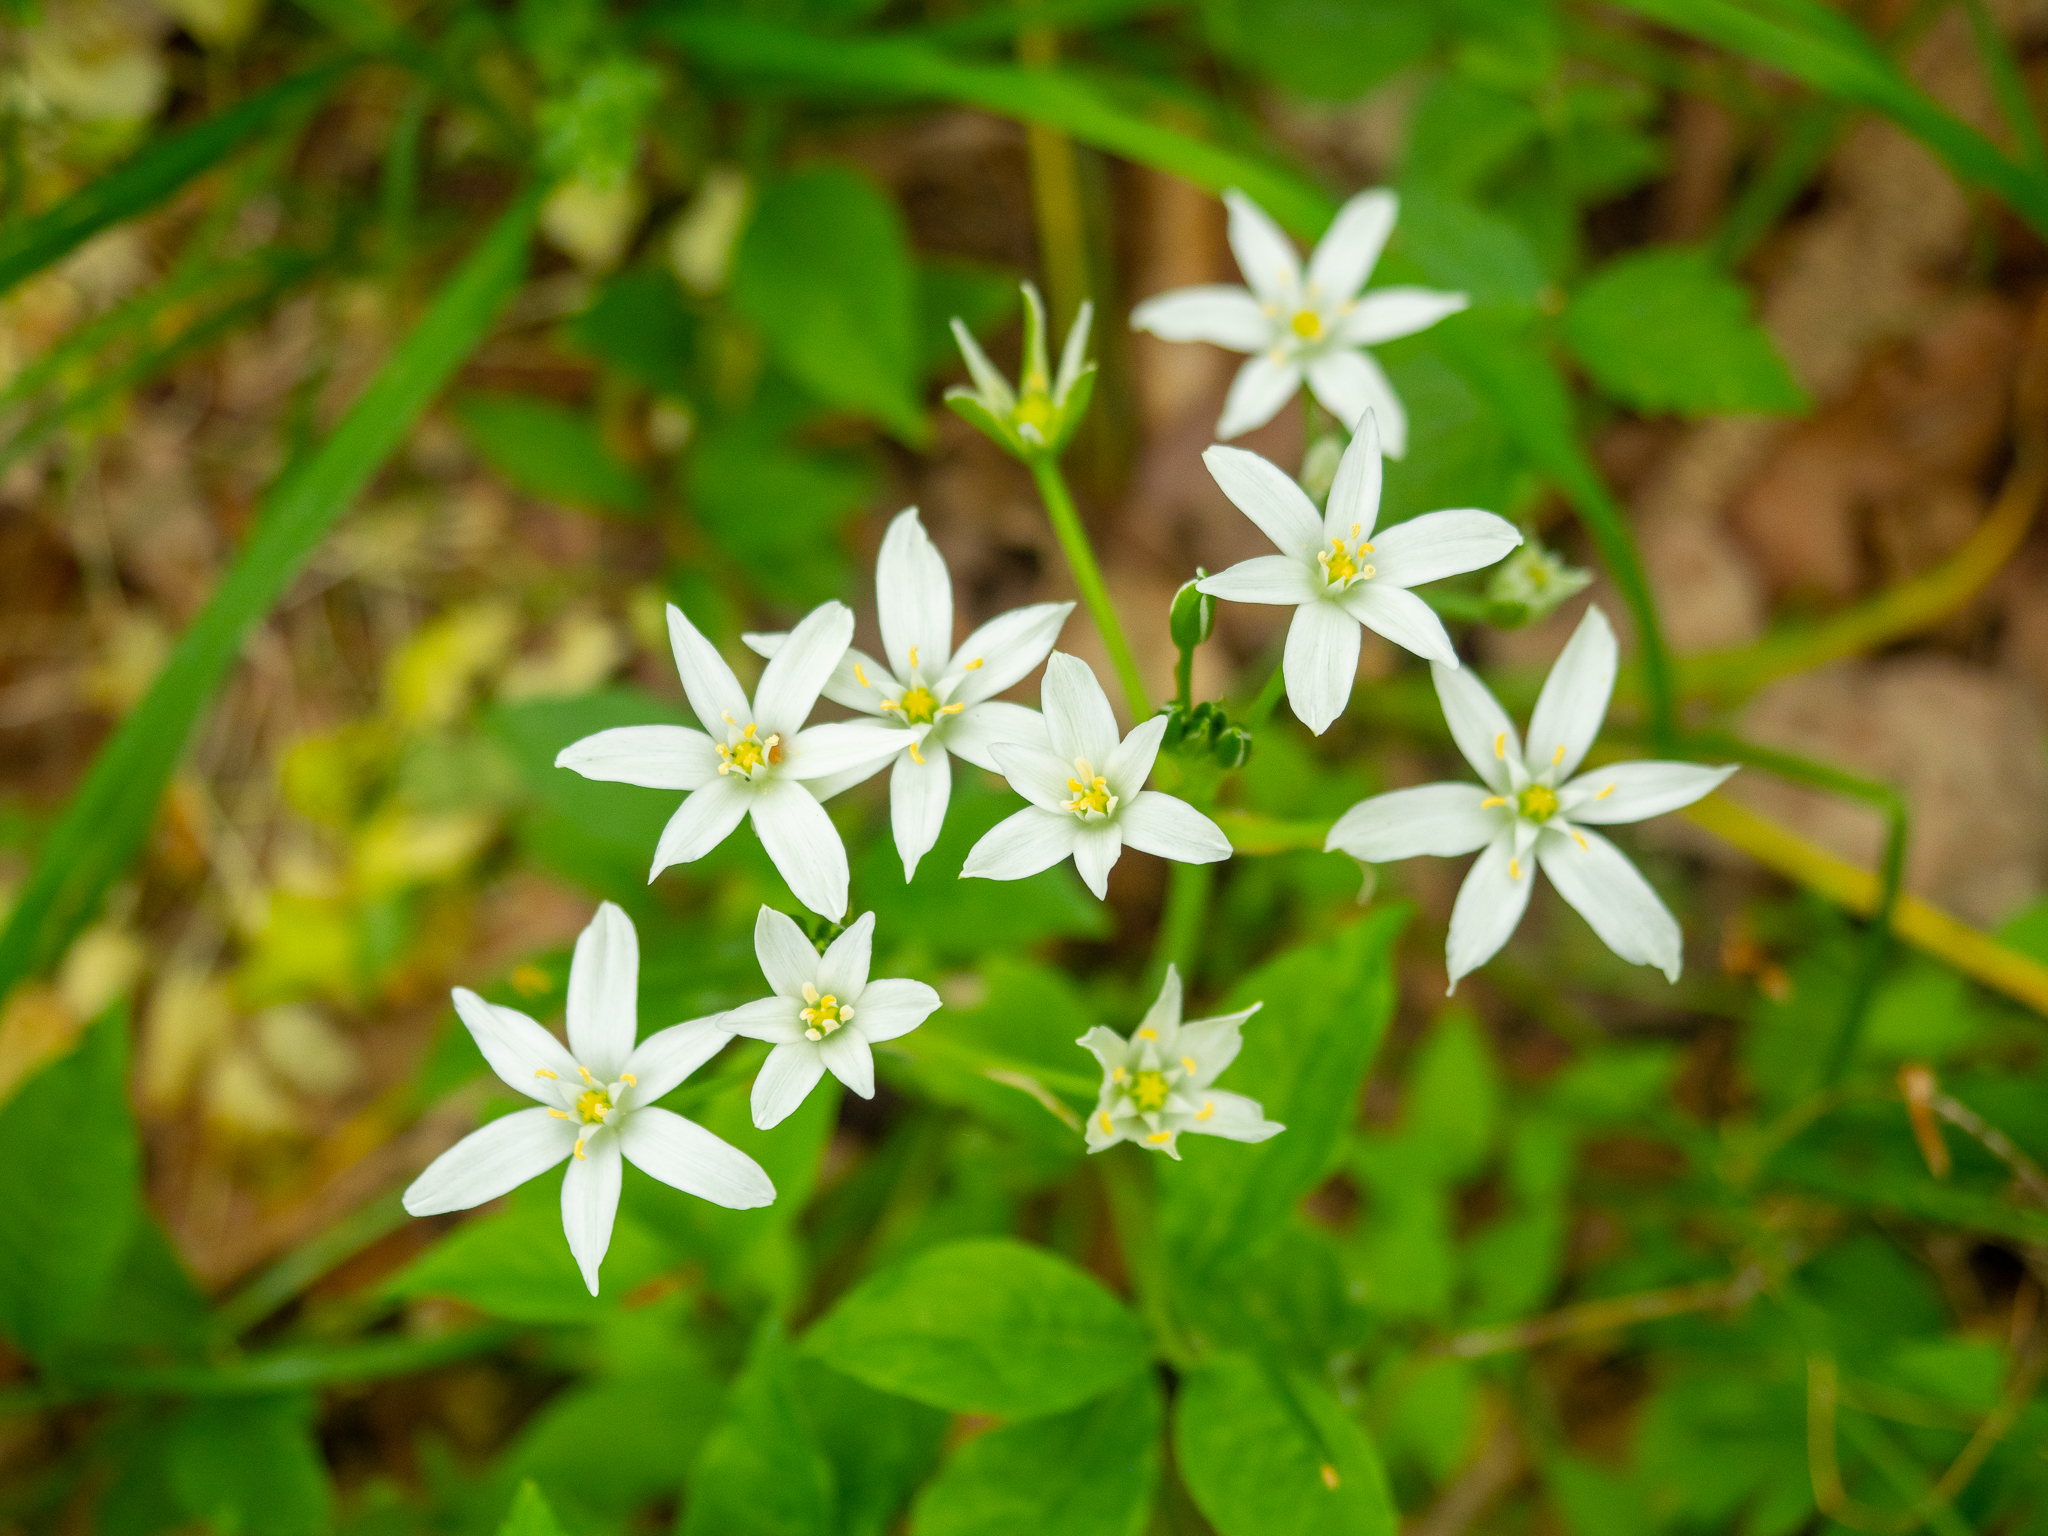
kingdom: Plantae
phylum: Tracheophyta
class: Liliopsida
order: Asparagales
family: Asparagaceae
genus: Ornithogalum
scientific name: Ornithogalum umbellatum
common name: Garden star-of-bethlehem
